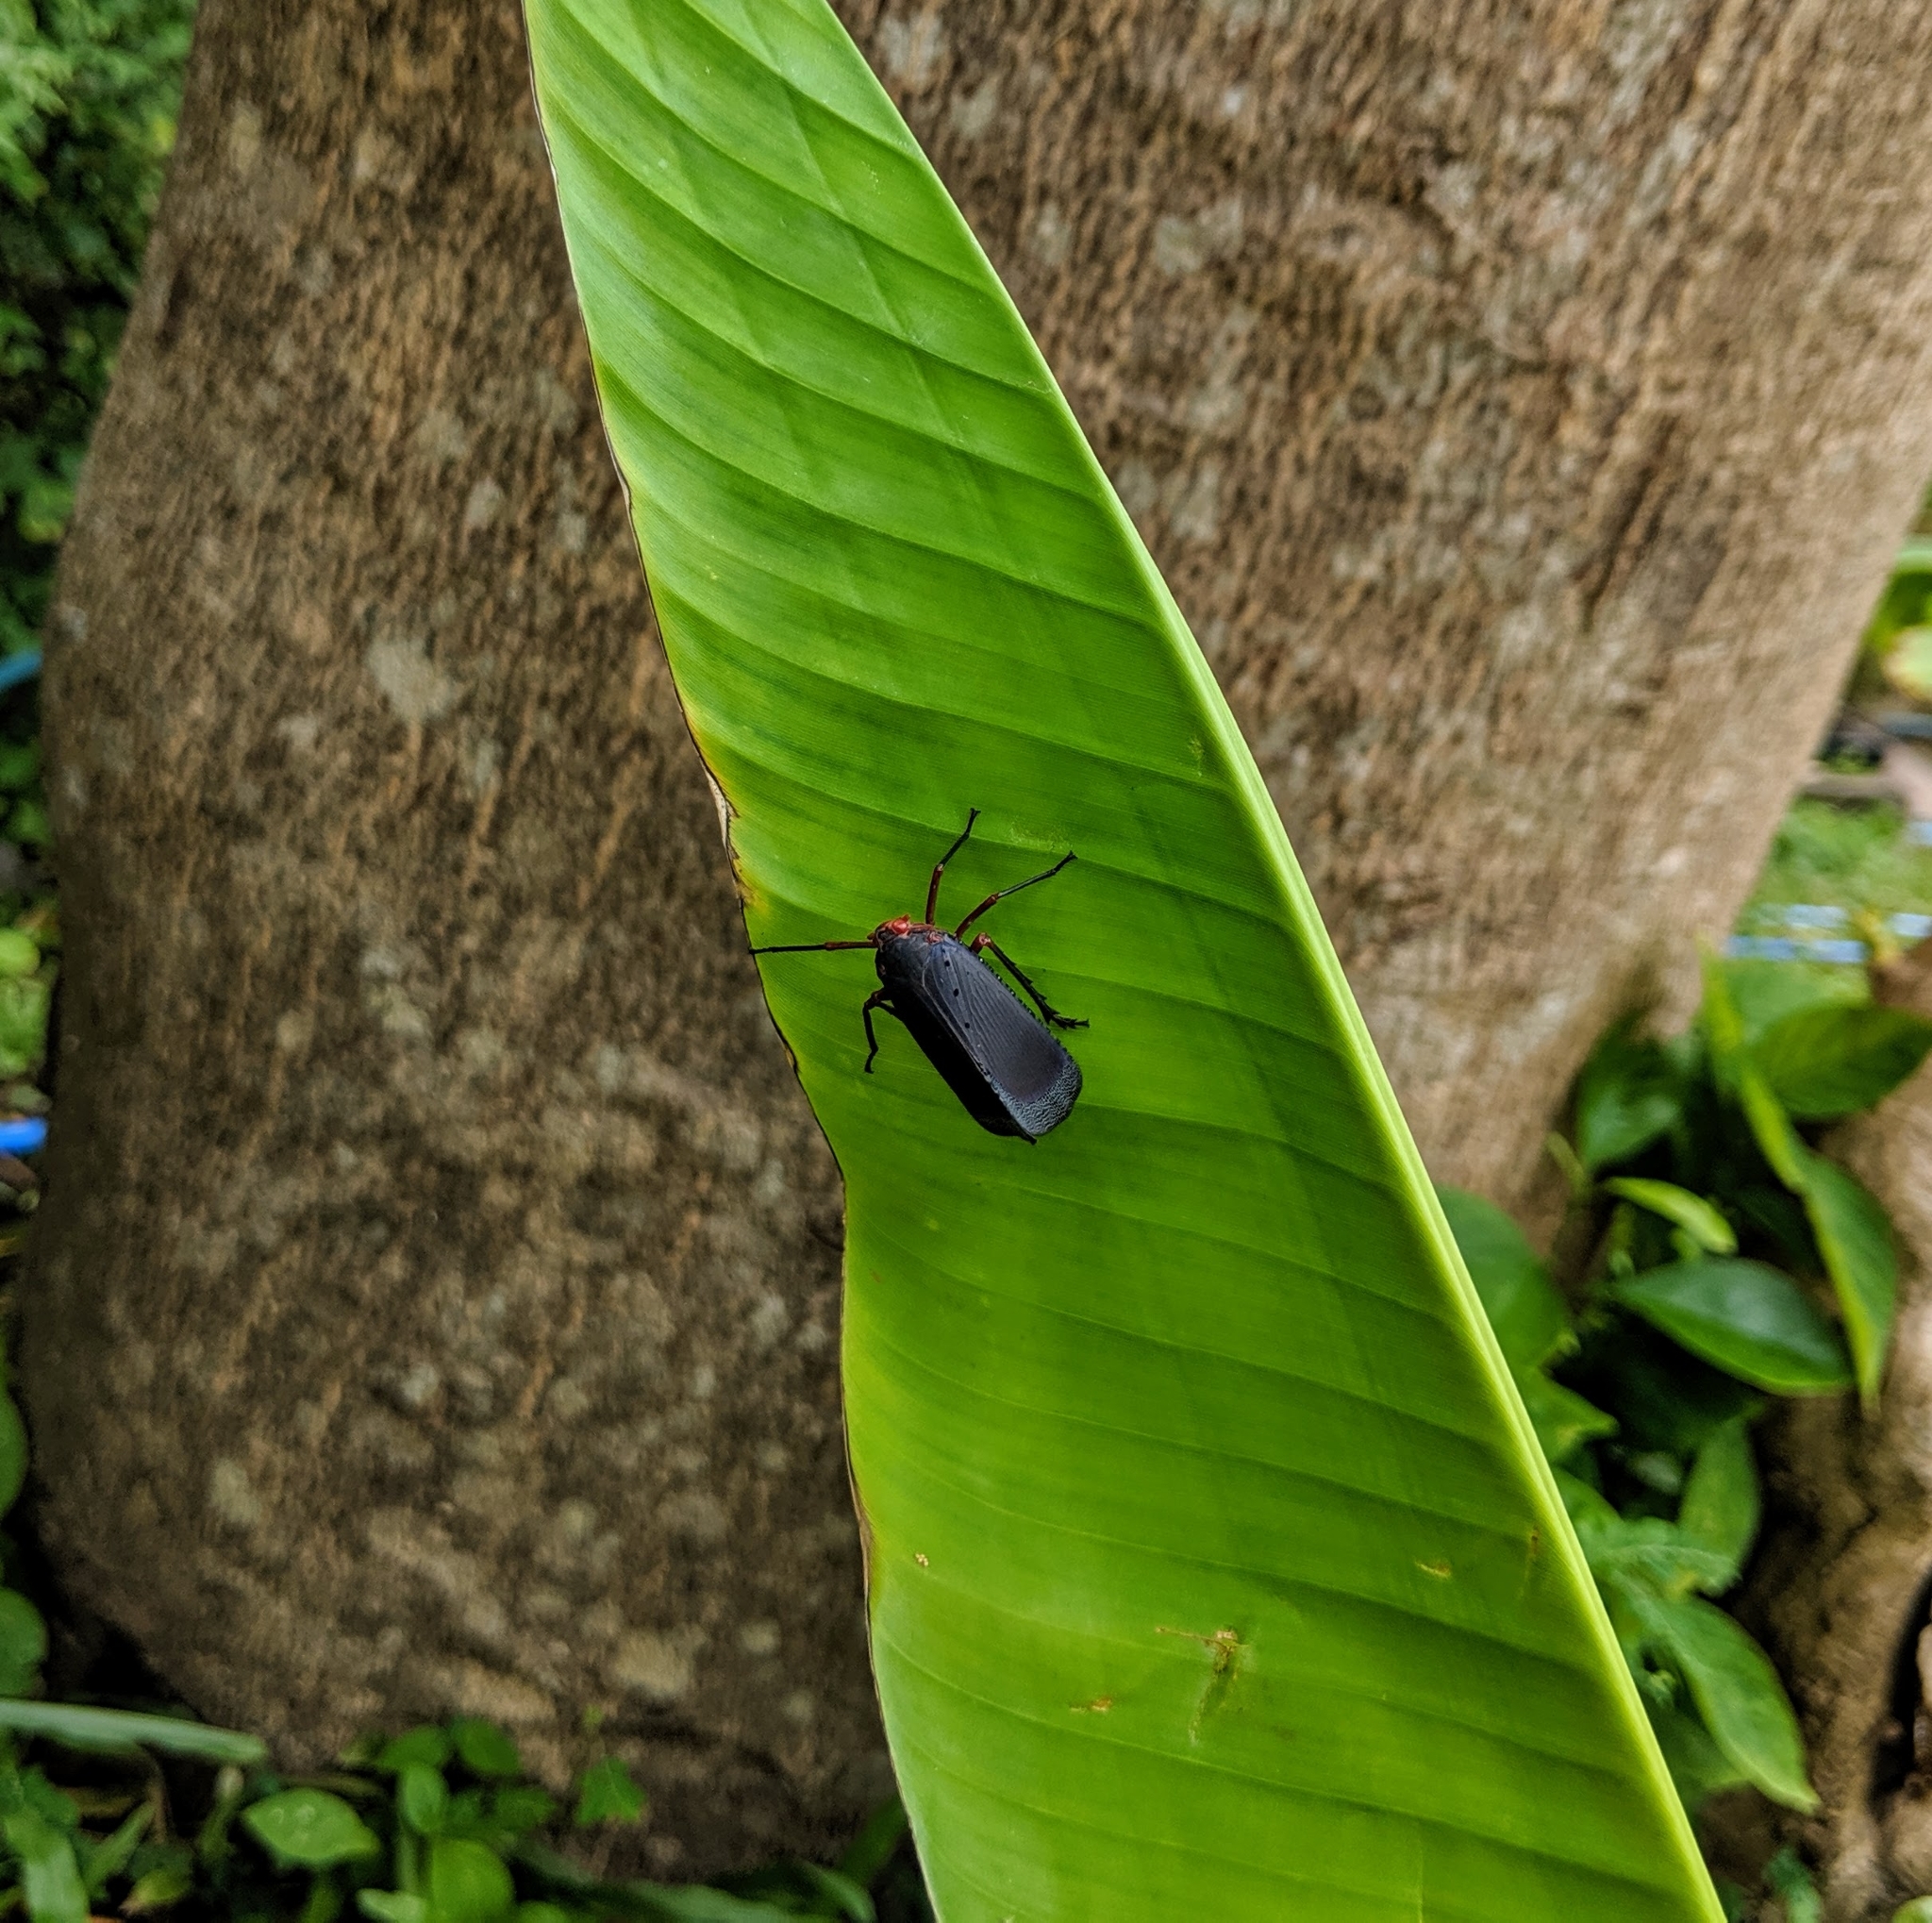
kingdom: Animalia
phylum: Arthropoda
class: Insecta
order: Hemiptera
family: Fulgoridae
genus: Kalidasa
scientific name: Kalidasa nigromaculata
